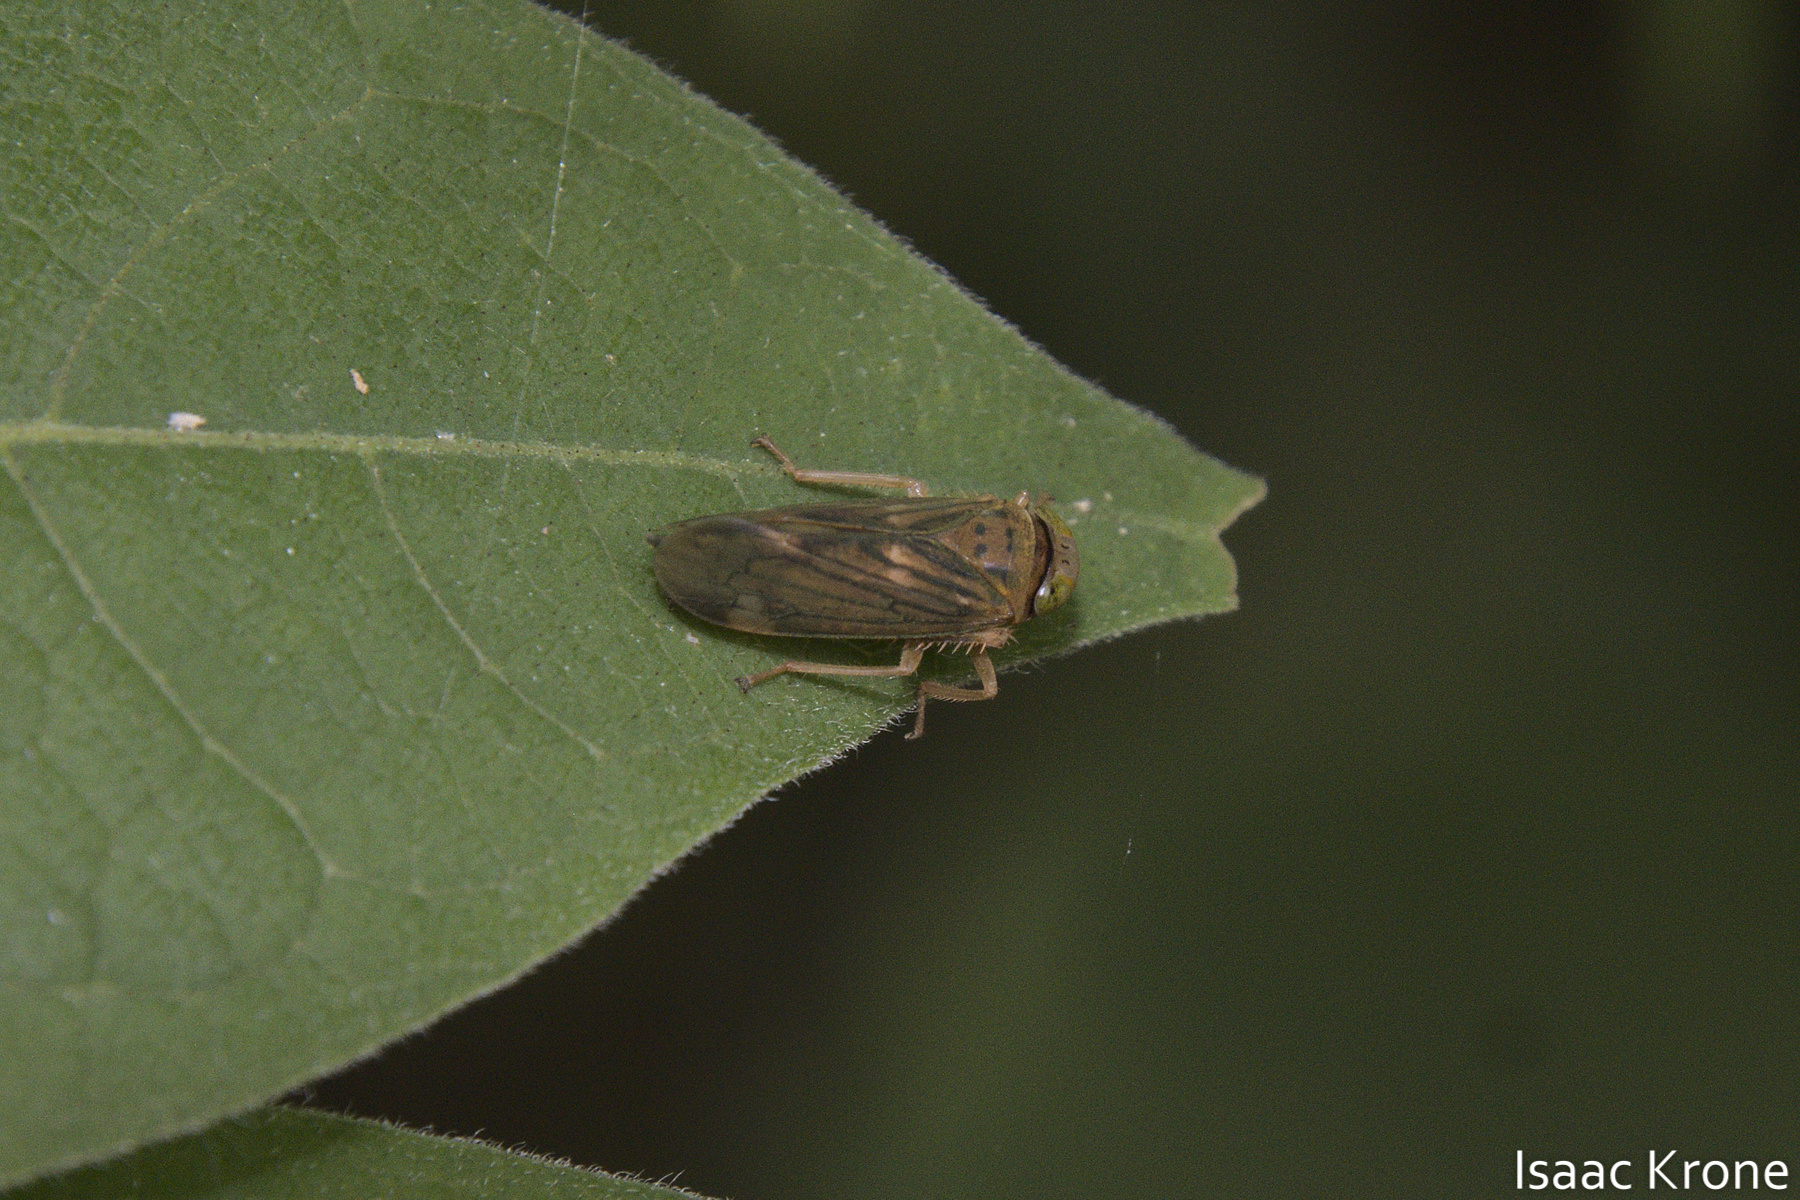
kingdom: Animalia
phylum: Arthropoda
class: Insecta
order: Hemiptera
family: Cicadellidae
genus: Jikradia
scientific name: Jikradia olitoria
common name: Coppery leafhopper
